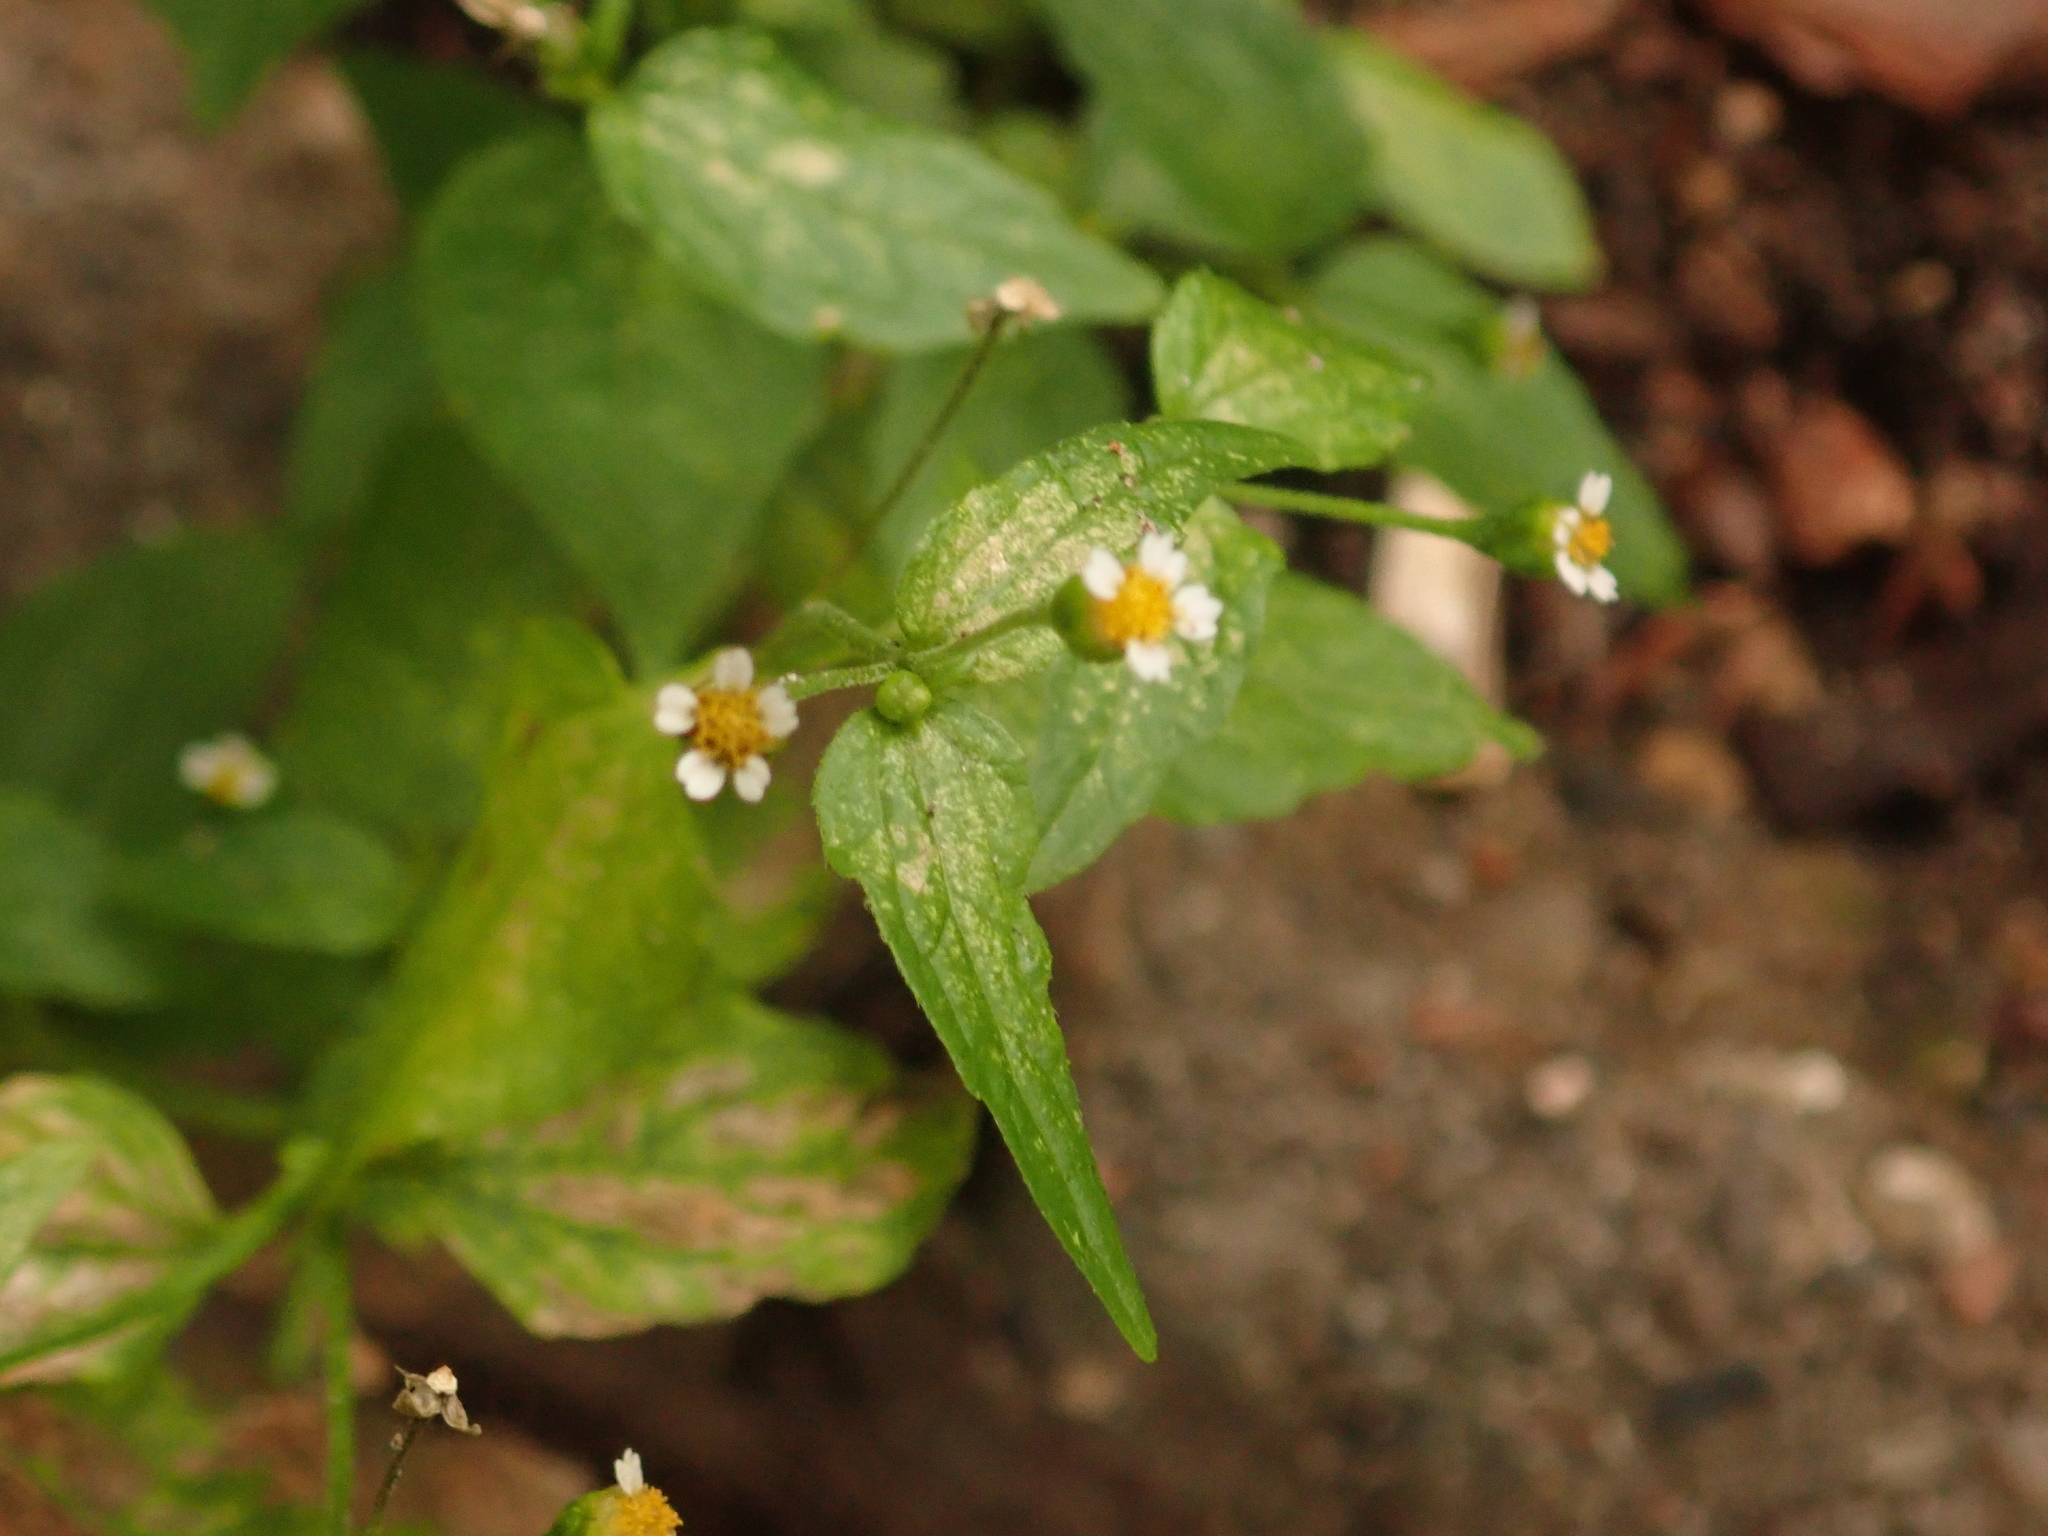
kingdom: Plantae
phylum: Tracheophyta
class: Magnoliopsida
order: Asterales
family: Asteraceae
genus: Galinsoga
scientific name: Galinsoga parviflora
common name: Gallant soldier
